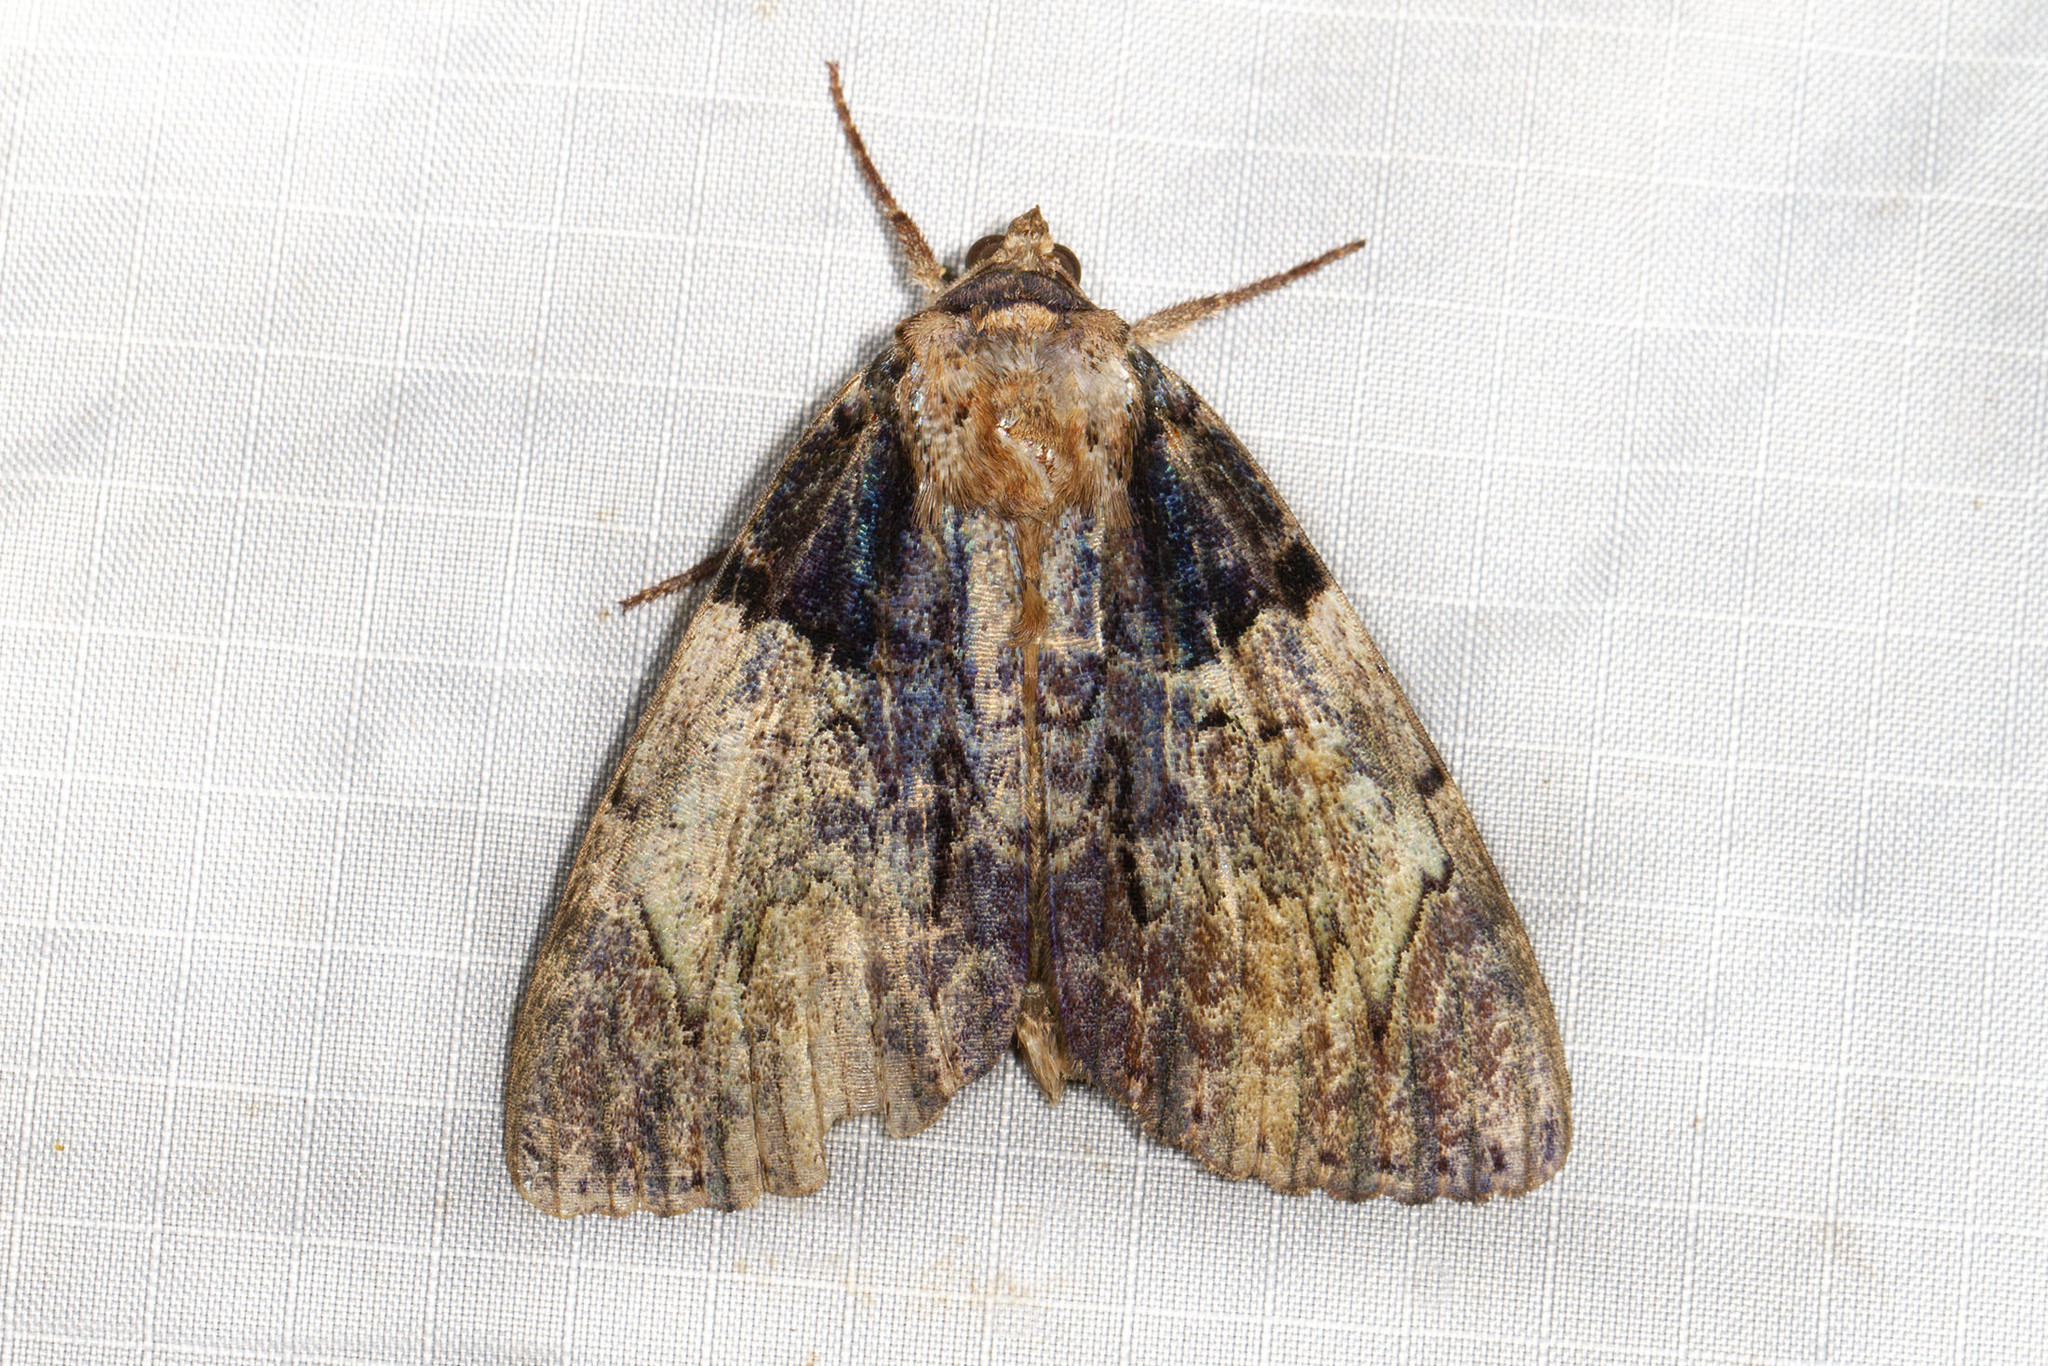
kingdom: Animalia
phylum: Arthropoda
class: Insecta
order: Lepidoptera
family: Erebidae
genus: Catocala
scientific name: Catocala nebulosa
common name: Clouded underwing
